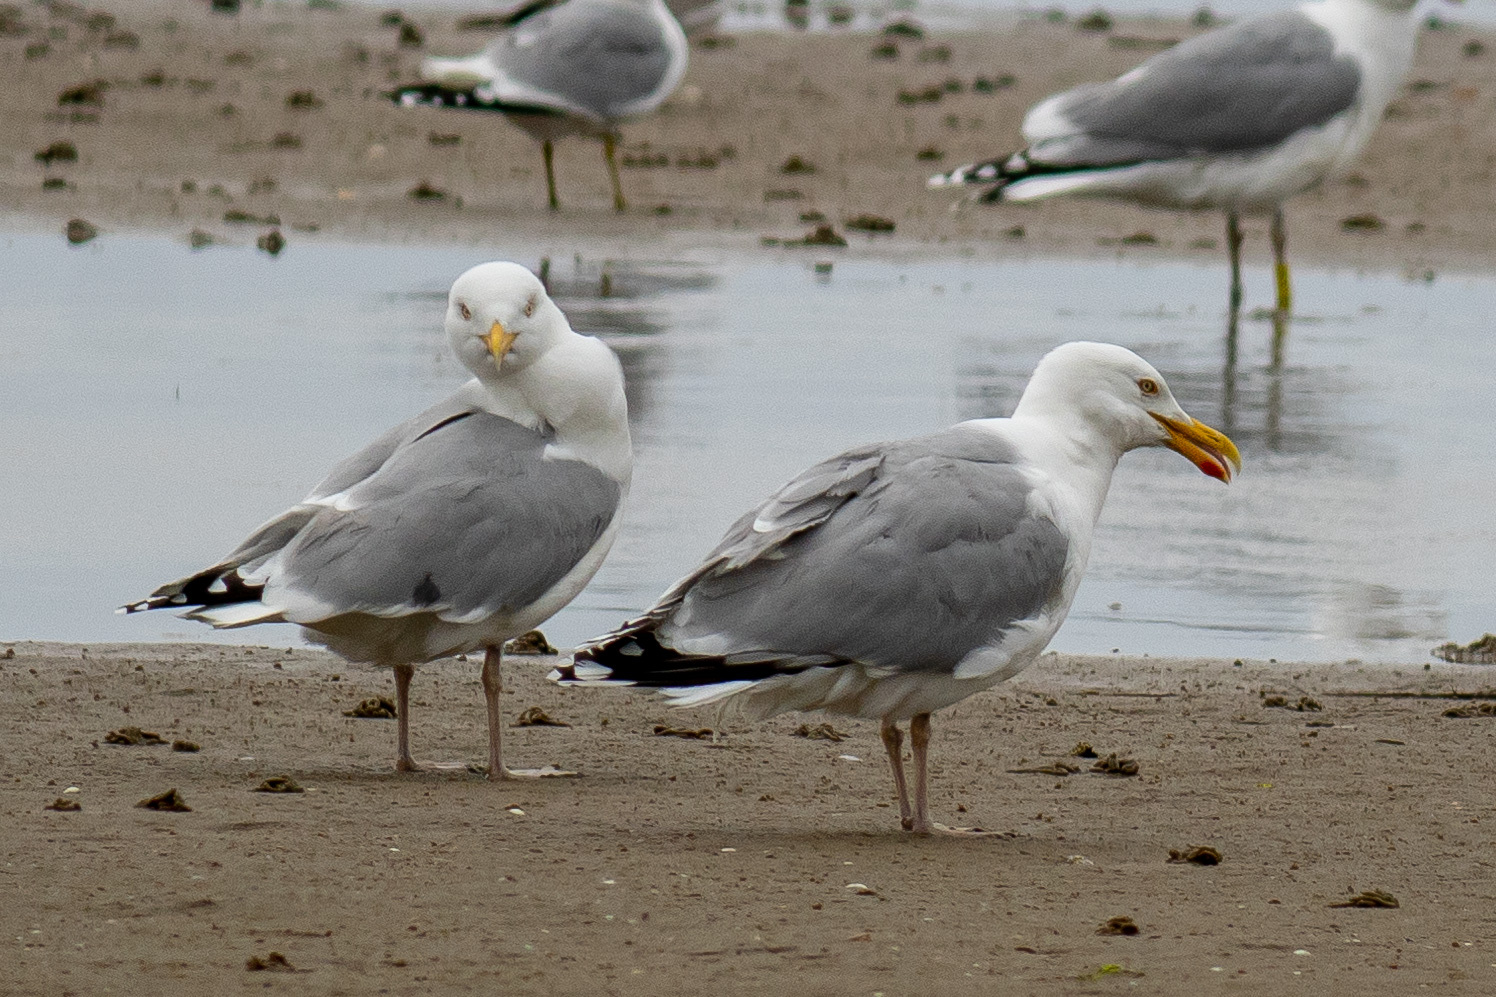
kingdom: Animalia
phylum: Chordata
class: Aves
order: Charadriiformes
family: Laridae
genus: Larus
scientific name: Larus argentatus
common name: Herring gull
